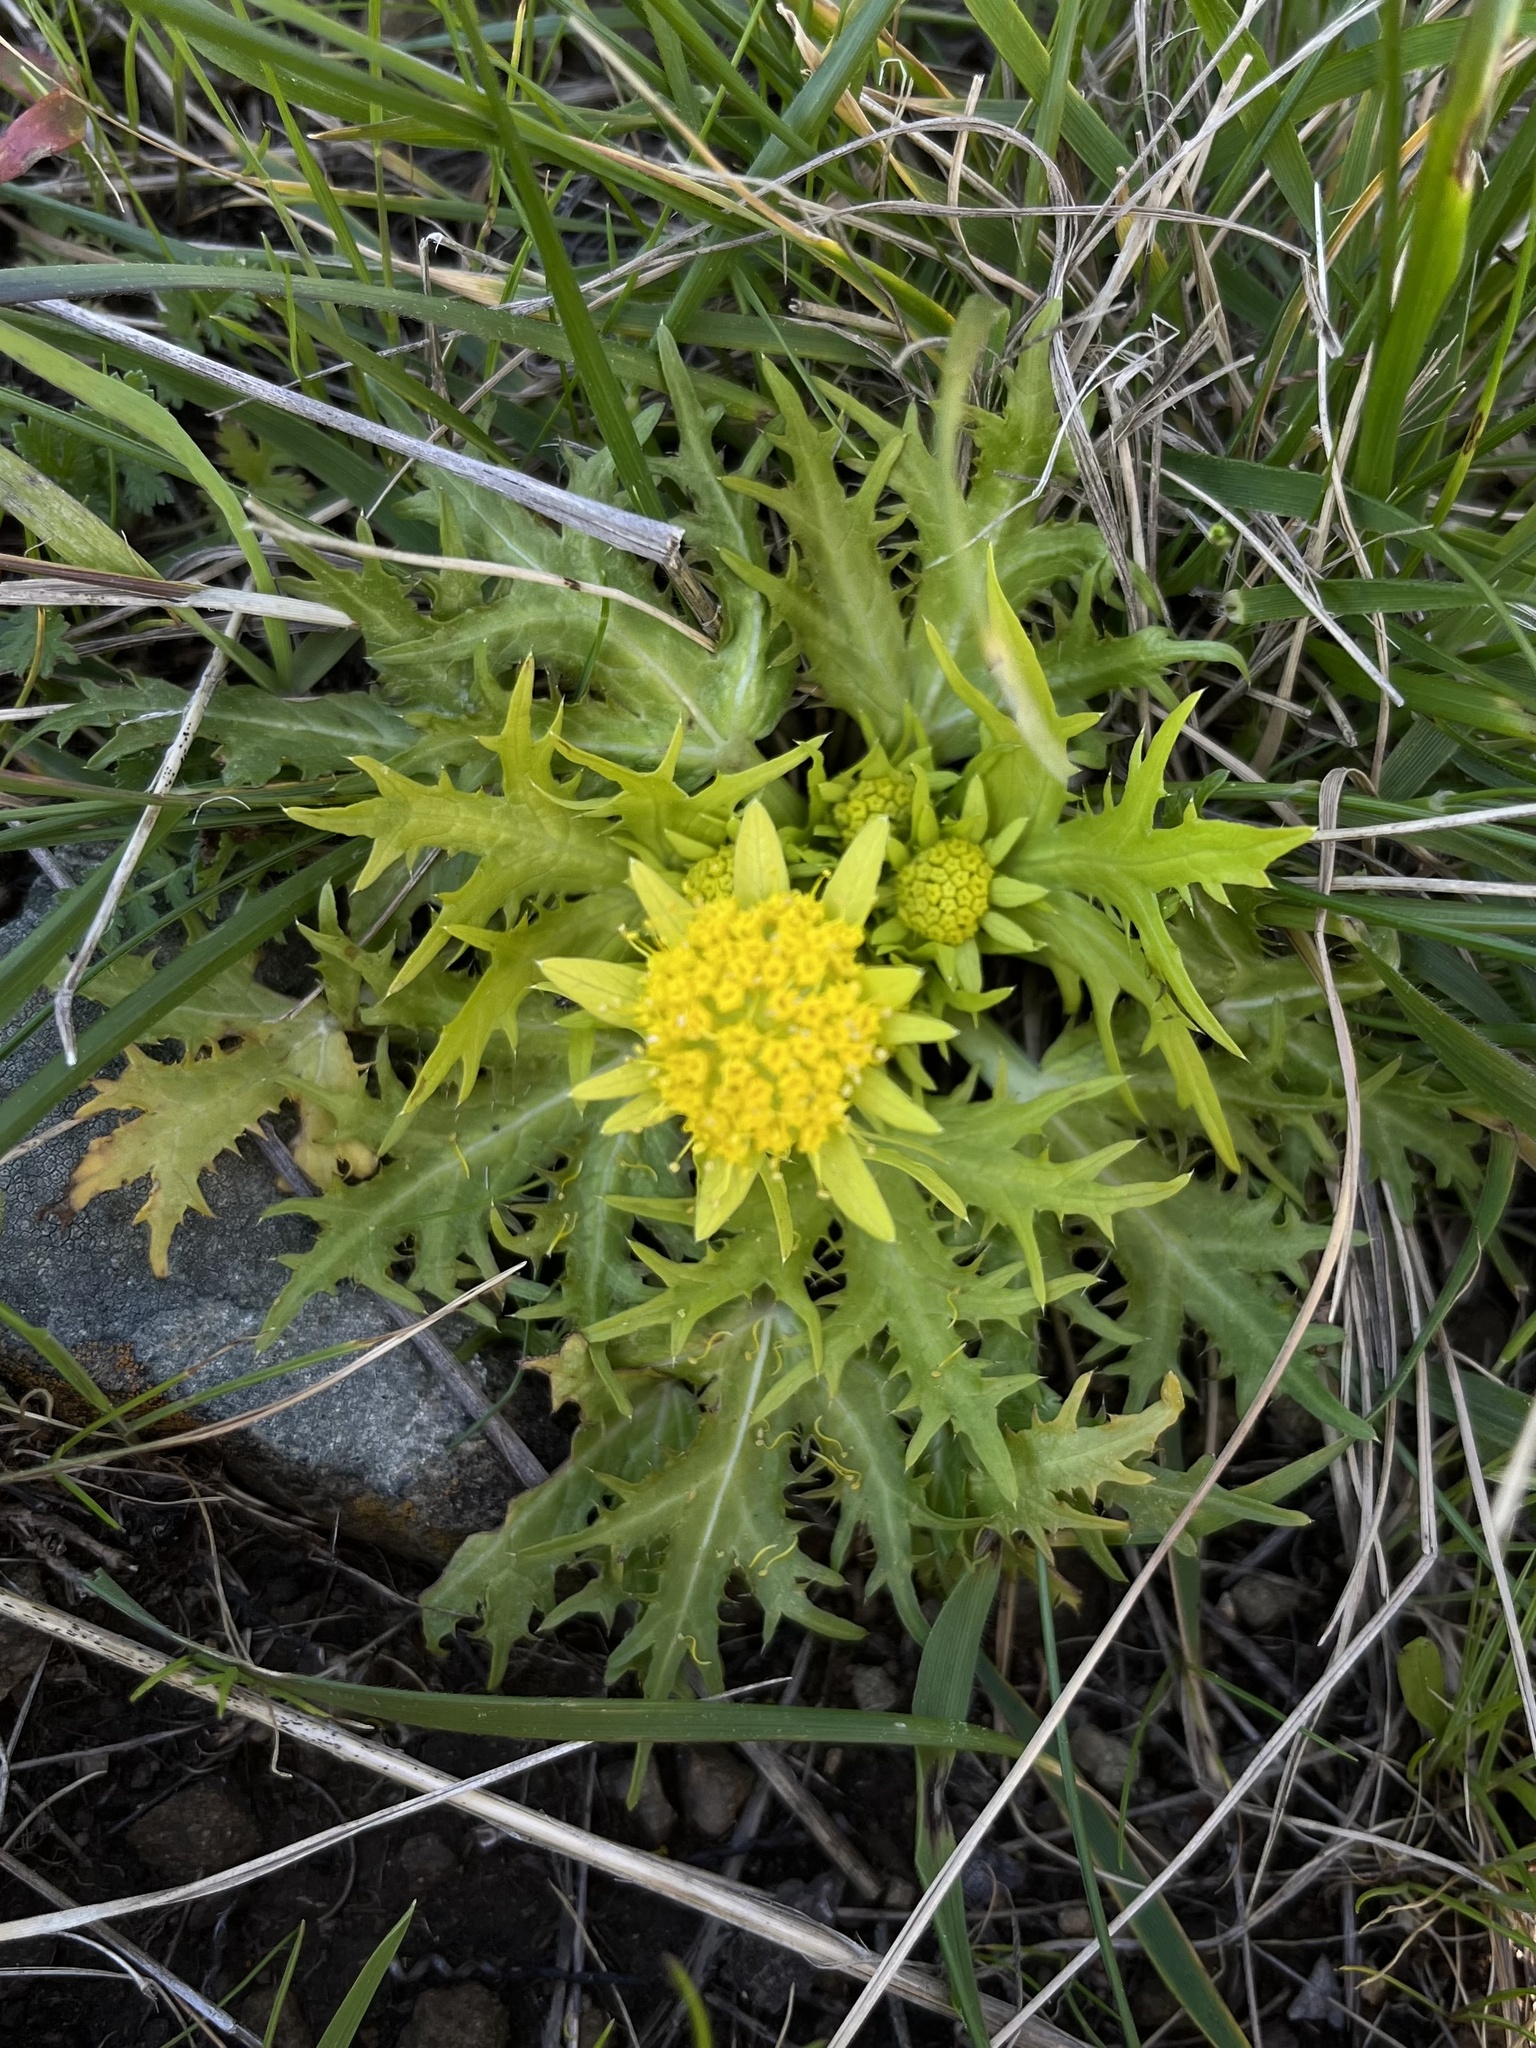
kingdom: Plantae
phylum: Tracheophyta
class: Magnoliopsida
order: Apiales
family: Apiaceae
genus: Sanicula
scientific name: Sanicula arctopoides
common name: Footsteps-of-spring
